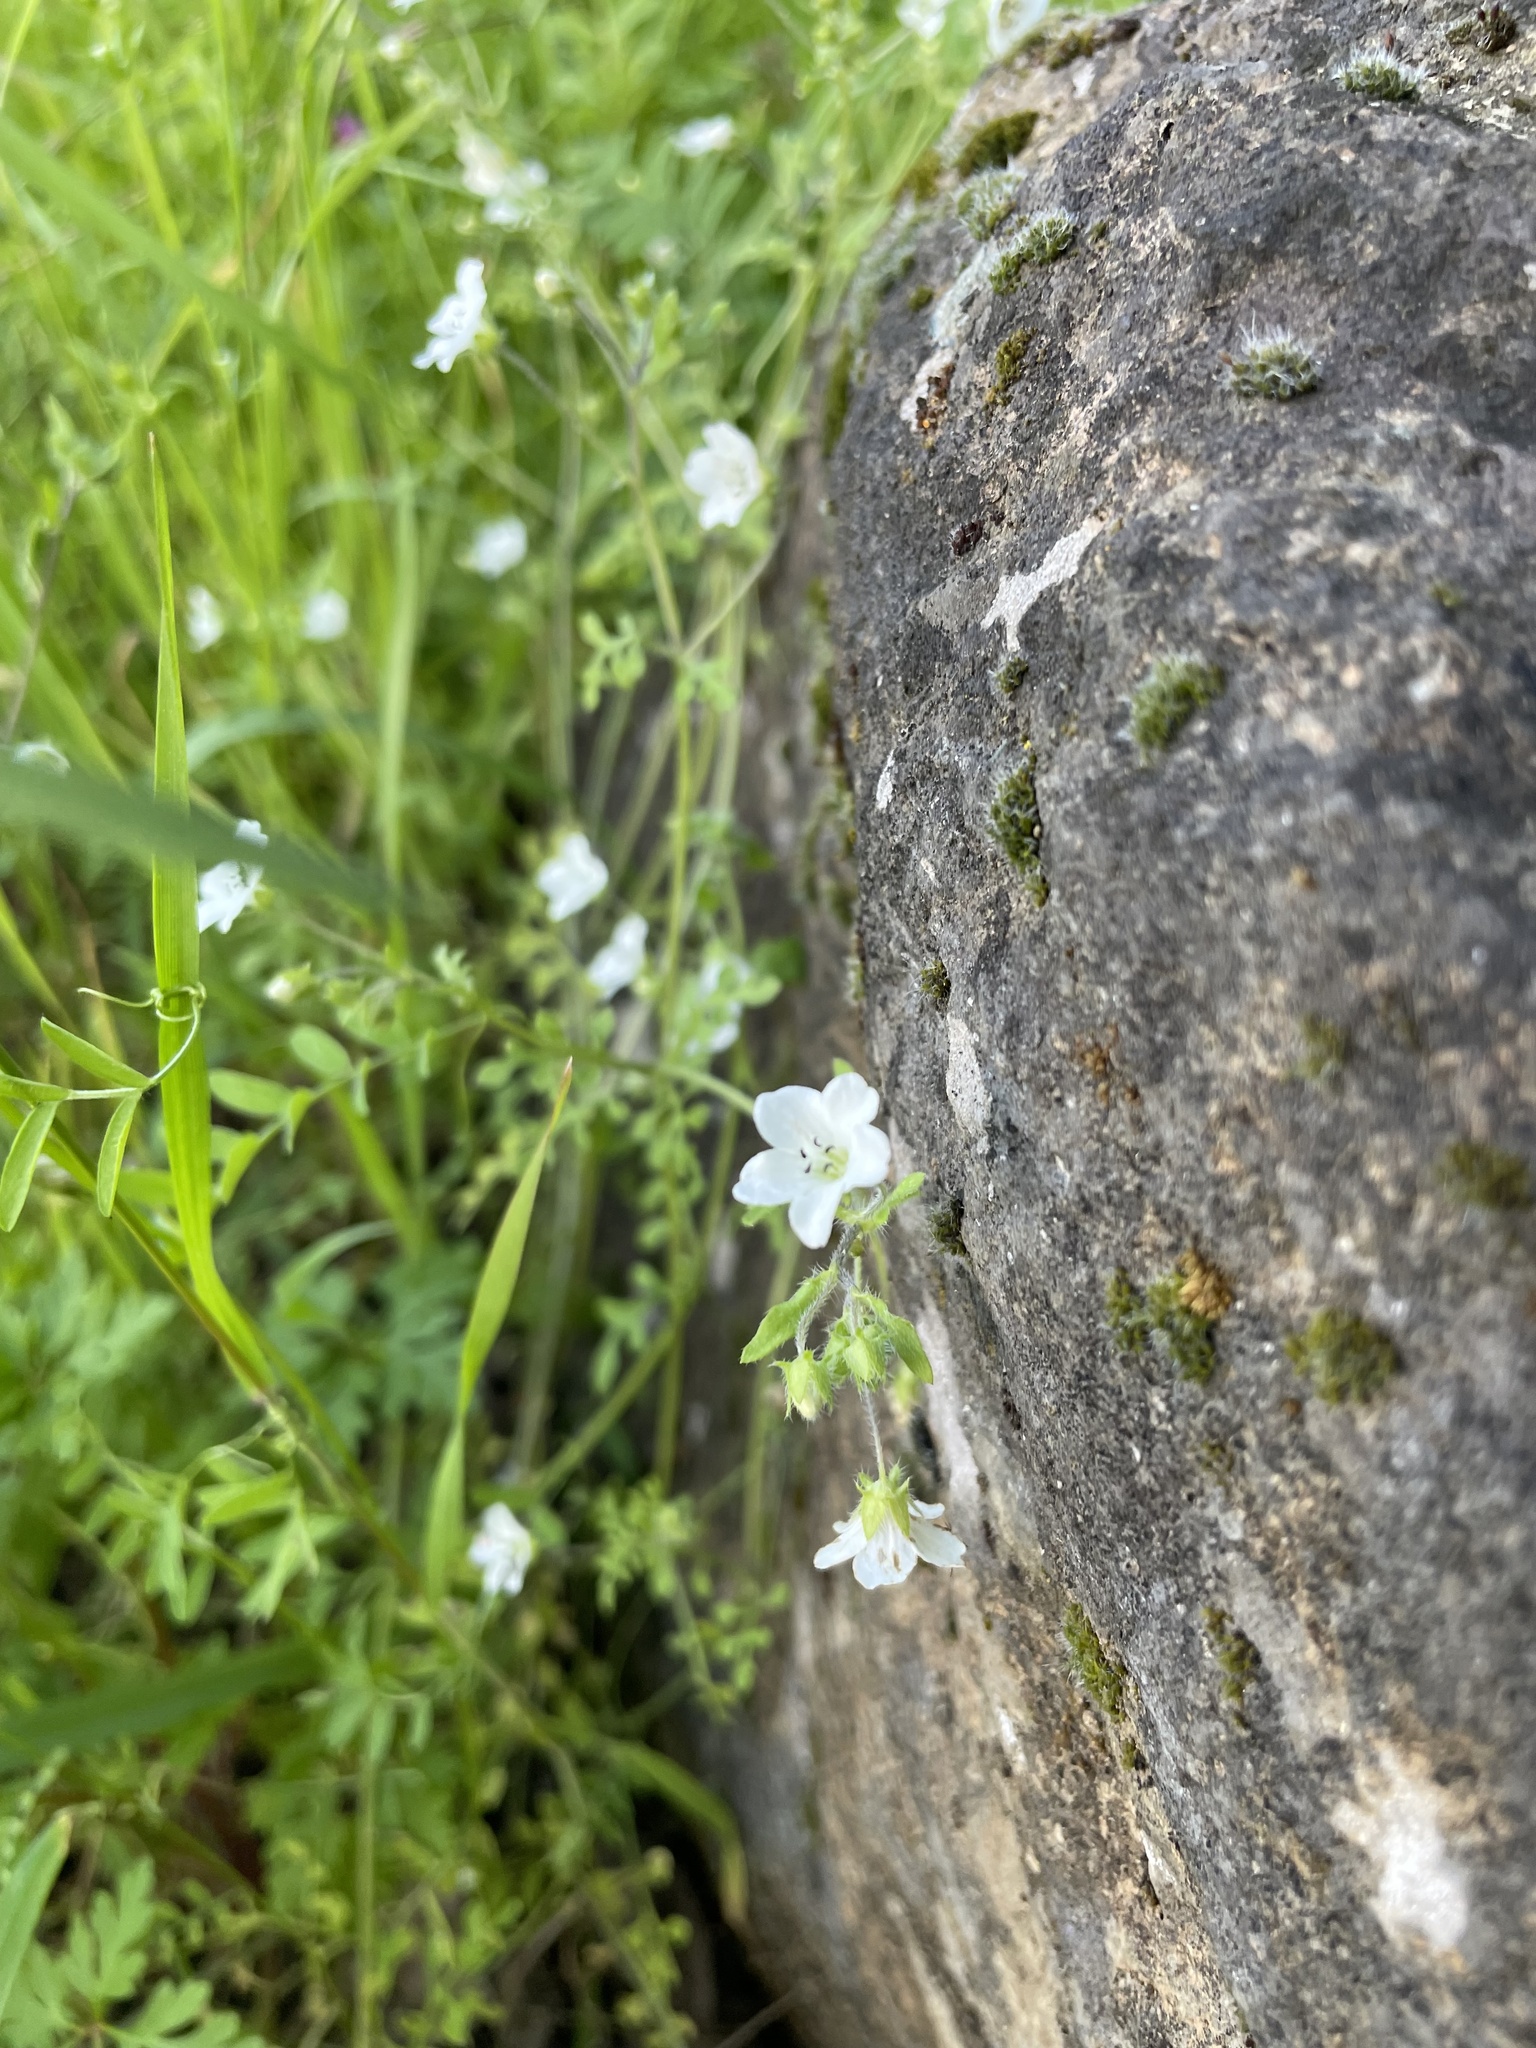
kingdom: Plantae
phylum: Tracheophyta
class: Magnoliopsida
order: Boraginales
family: Hydrophyllaceae
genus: Nemophila
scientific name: Nemophila heterophylla
